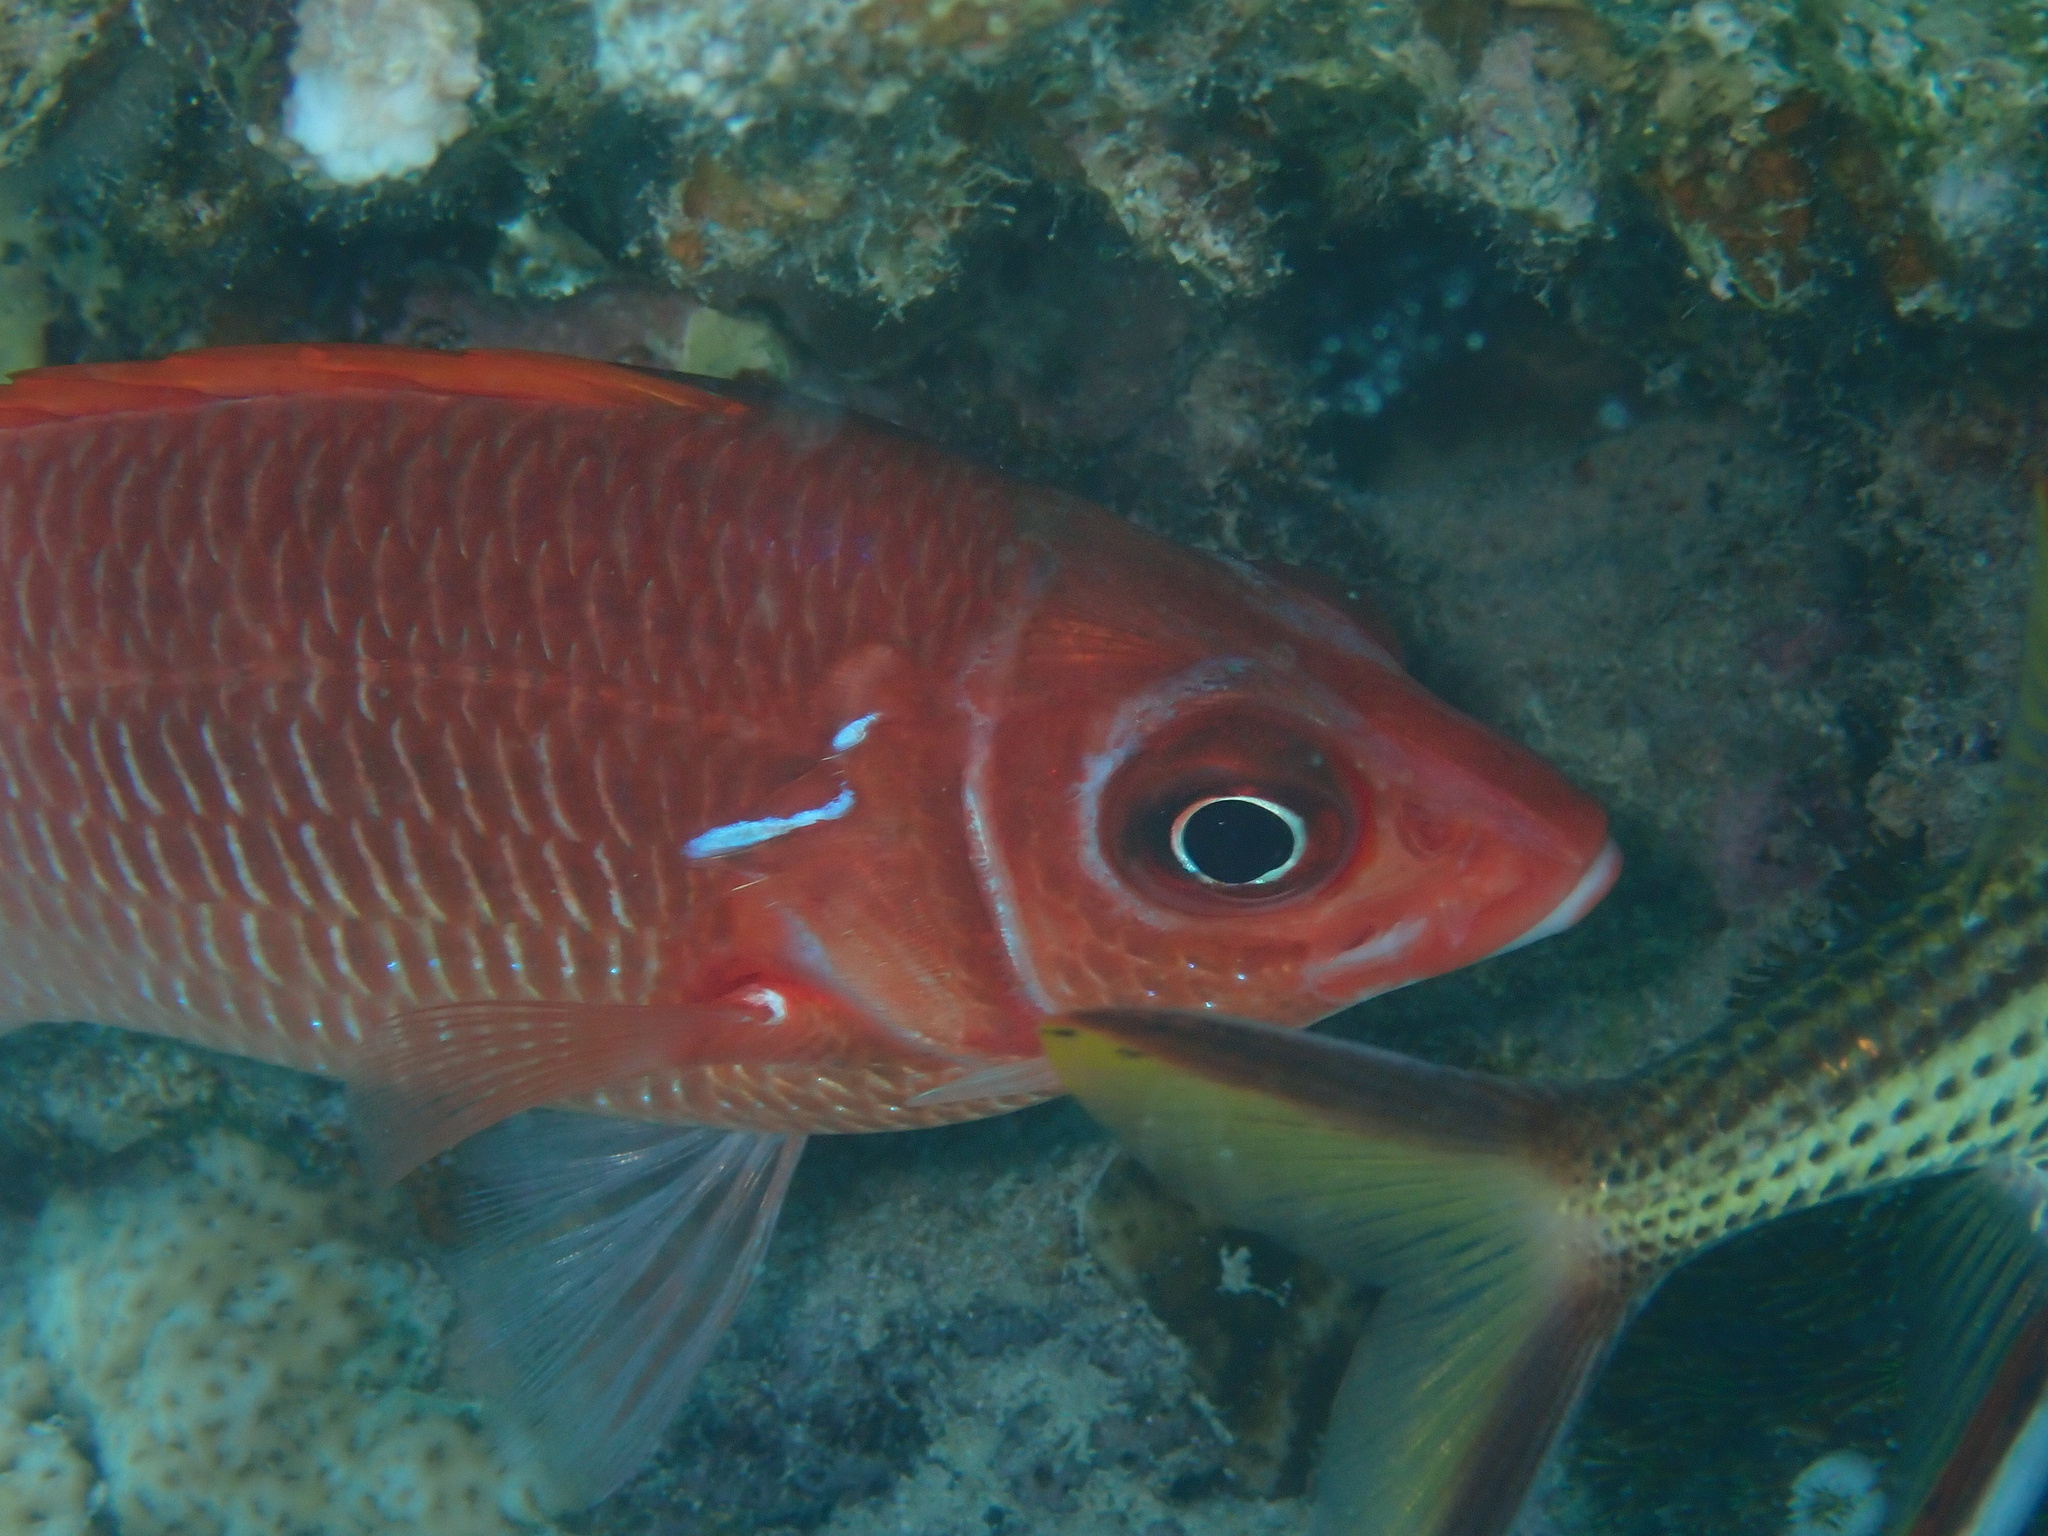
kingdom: Animalia
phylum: Chordata
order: Beryciformes
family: Holocentridae
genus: Sargocentron
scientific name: Sargocentron caudimaculatum
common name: Fanfin soldier
